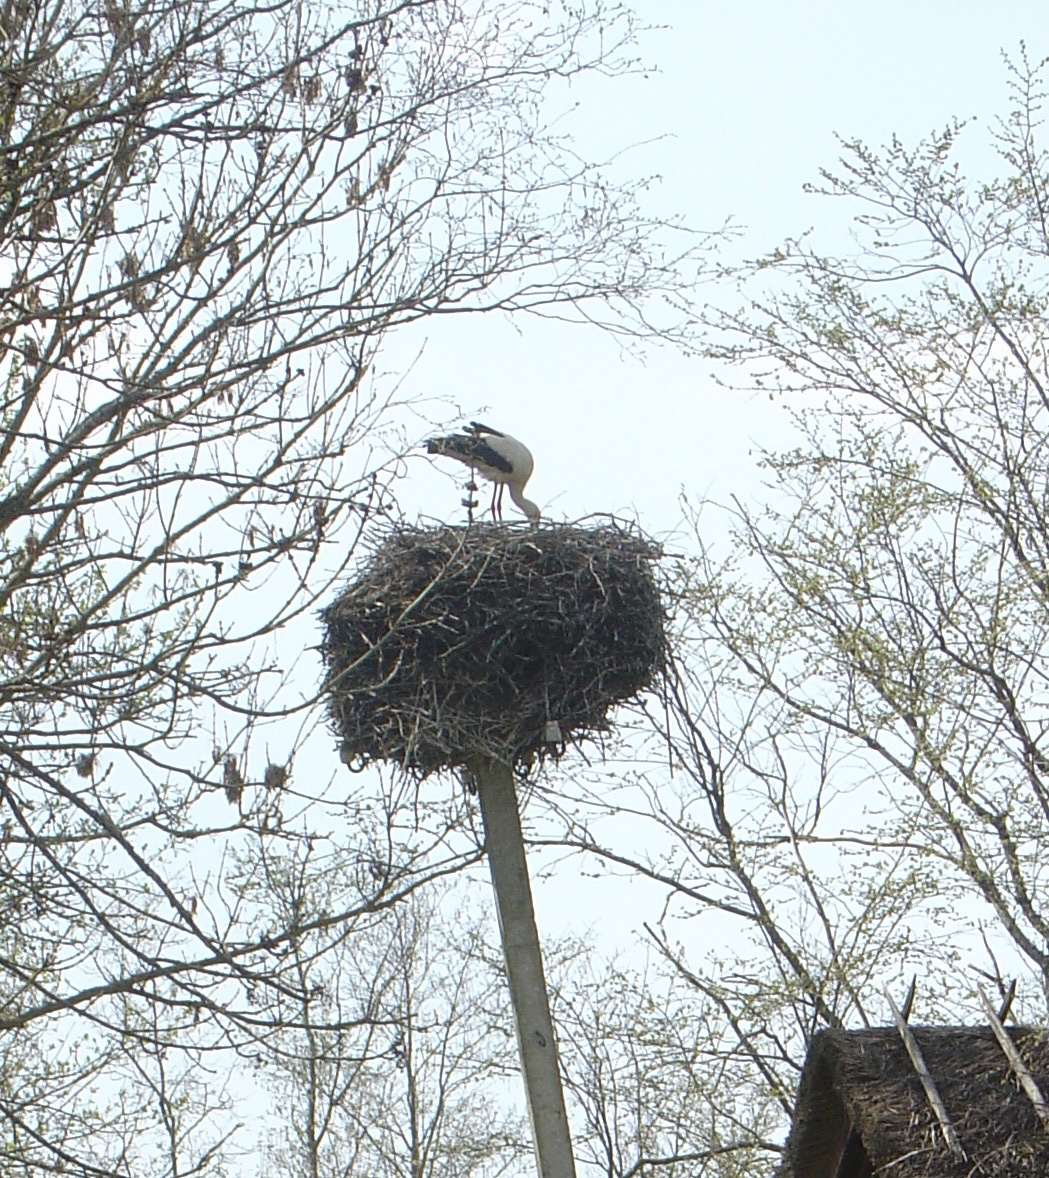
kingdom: Animalia
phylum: Chordata
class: Aves
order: Ciconiiformes
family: Ciconiidae
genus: Ciconia
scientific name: Ciconia ciconia
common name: White stork
